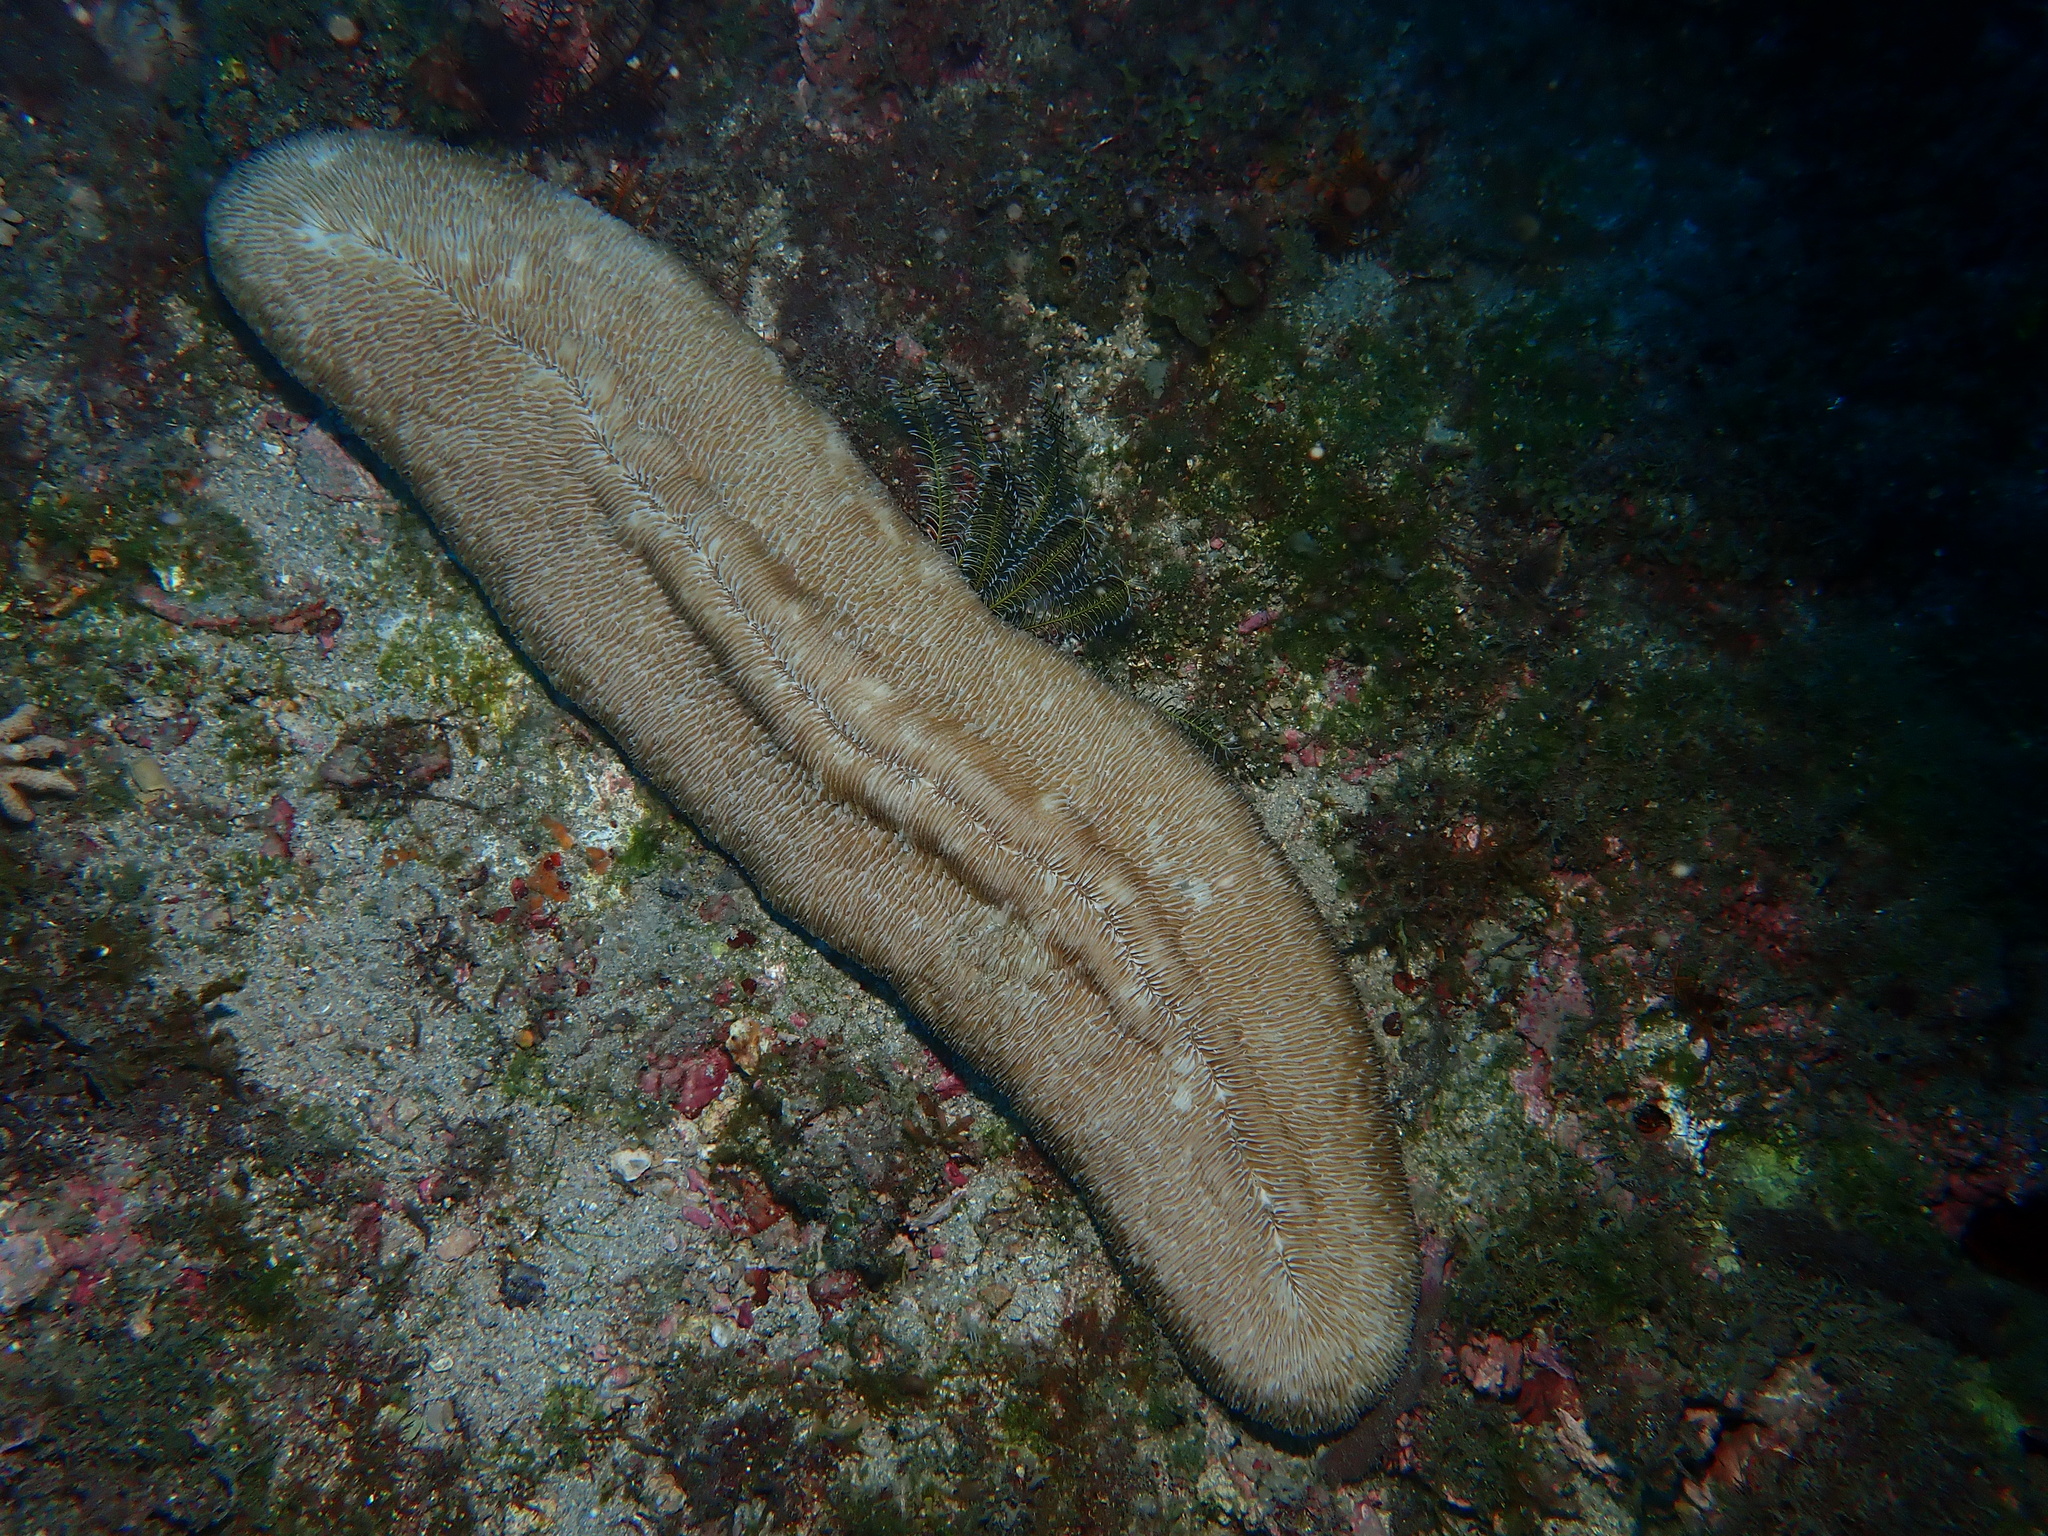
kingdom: Animalia
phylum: Cnidaria
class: Anthozoa
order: Scleractinia
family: Fungiidae
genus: Herpolitha
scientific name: Herpolitha limax
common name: Striate boomerang coral
